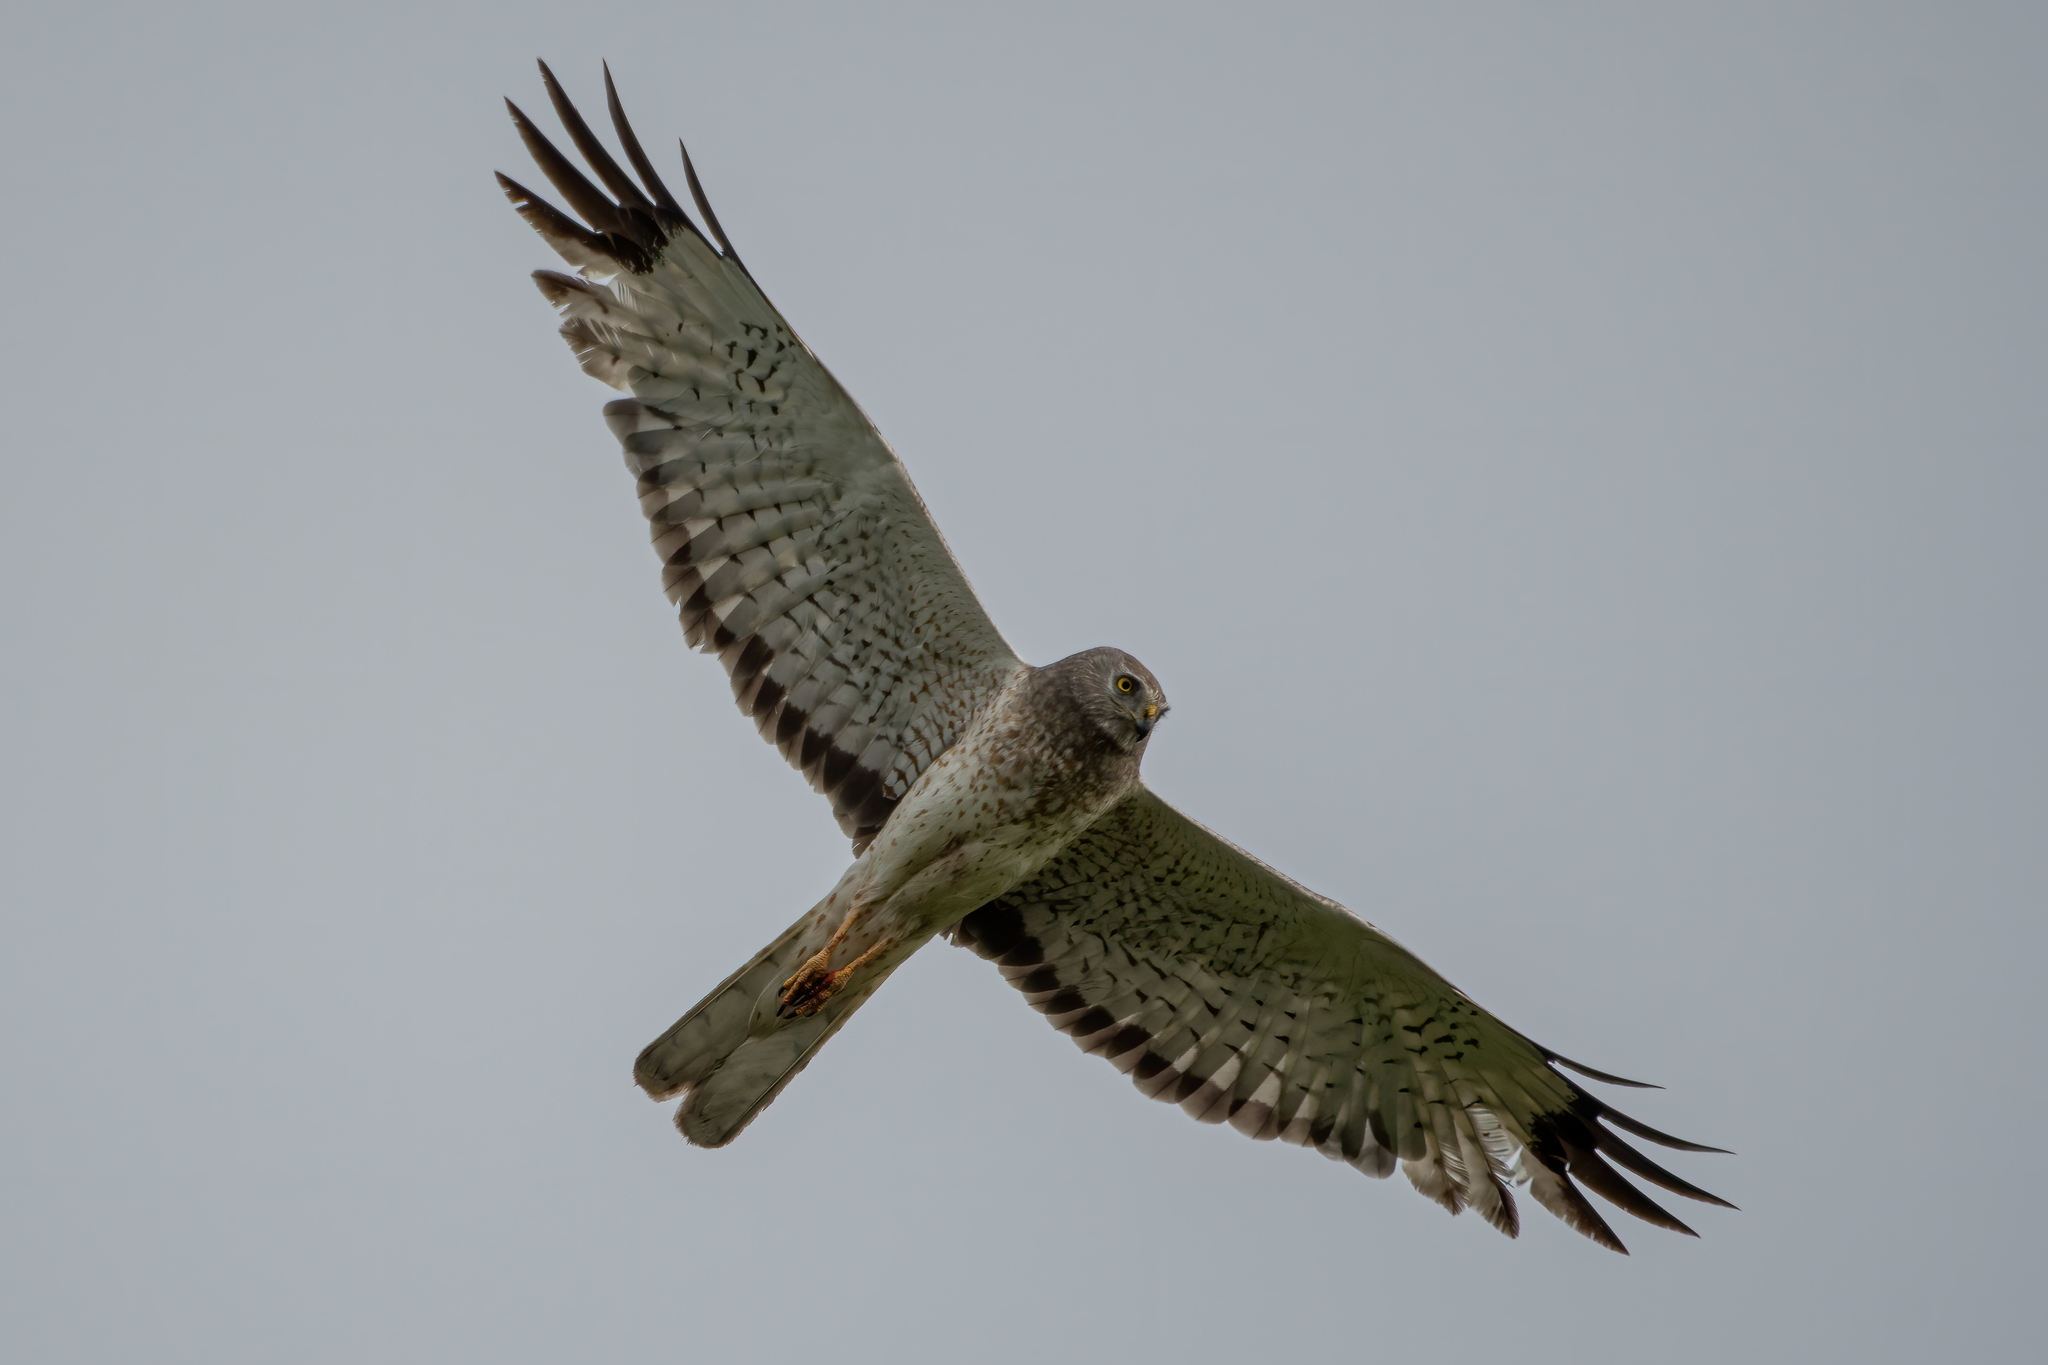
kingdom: Animalia
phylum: Chordata
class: Aves
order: Accipitriformes
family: Accipitridae
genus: Circus
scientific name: Circus cyaneus
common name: Hen harrier
